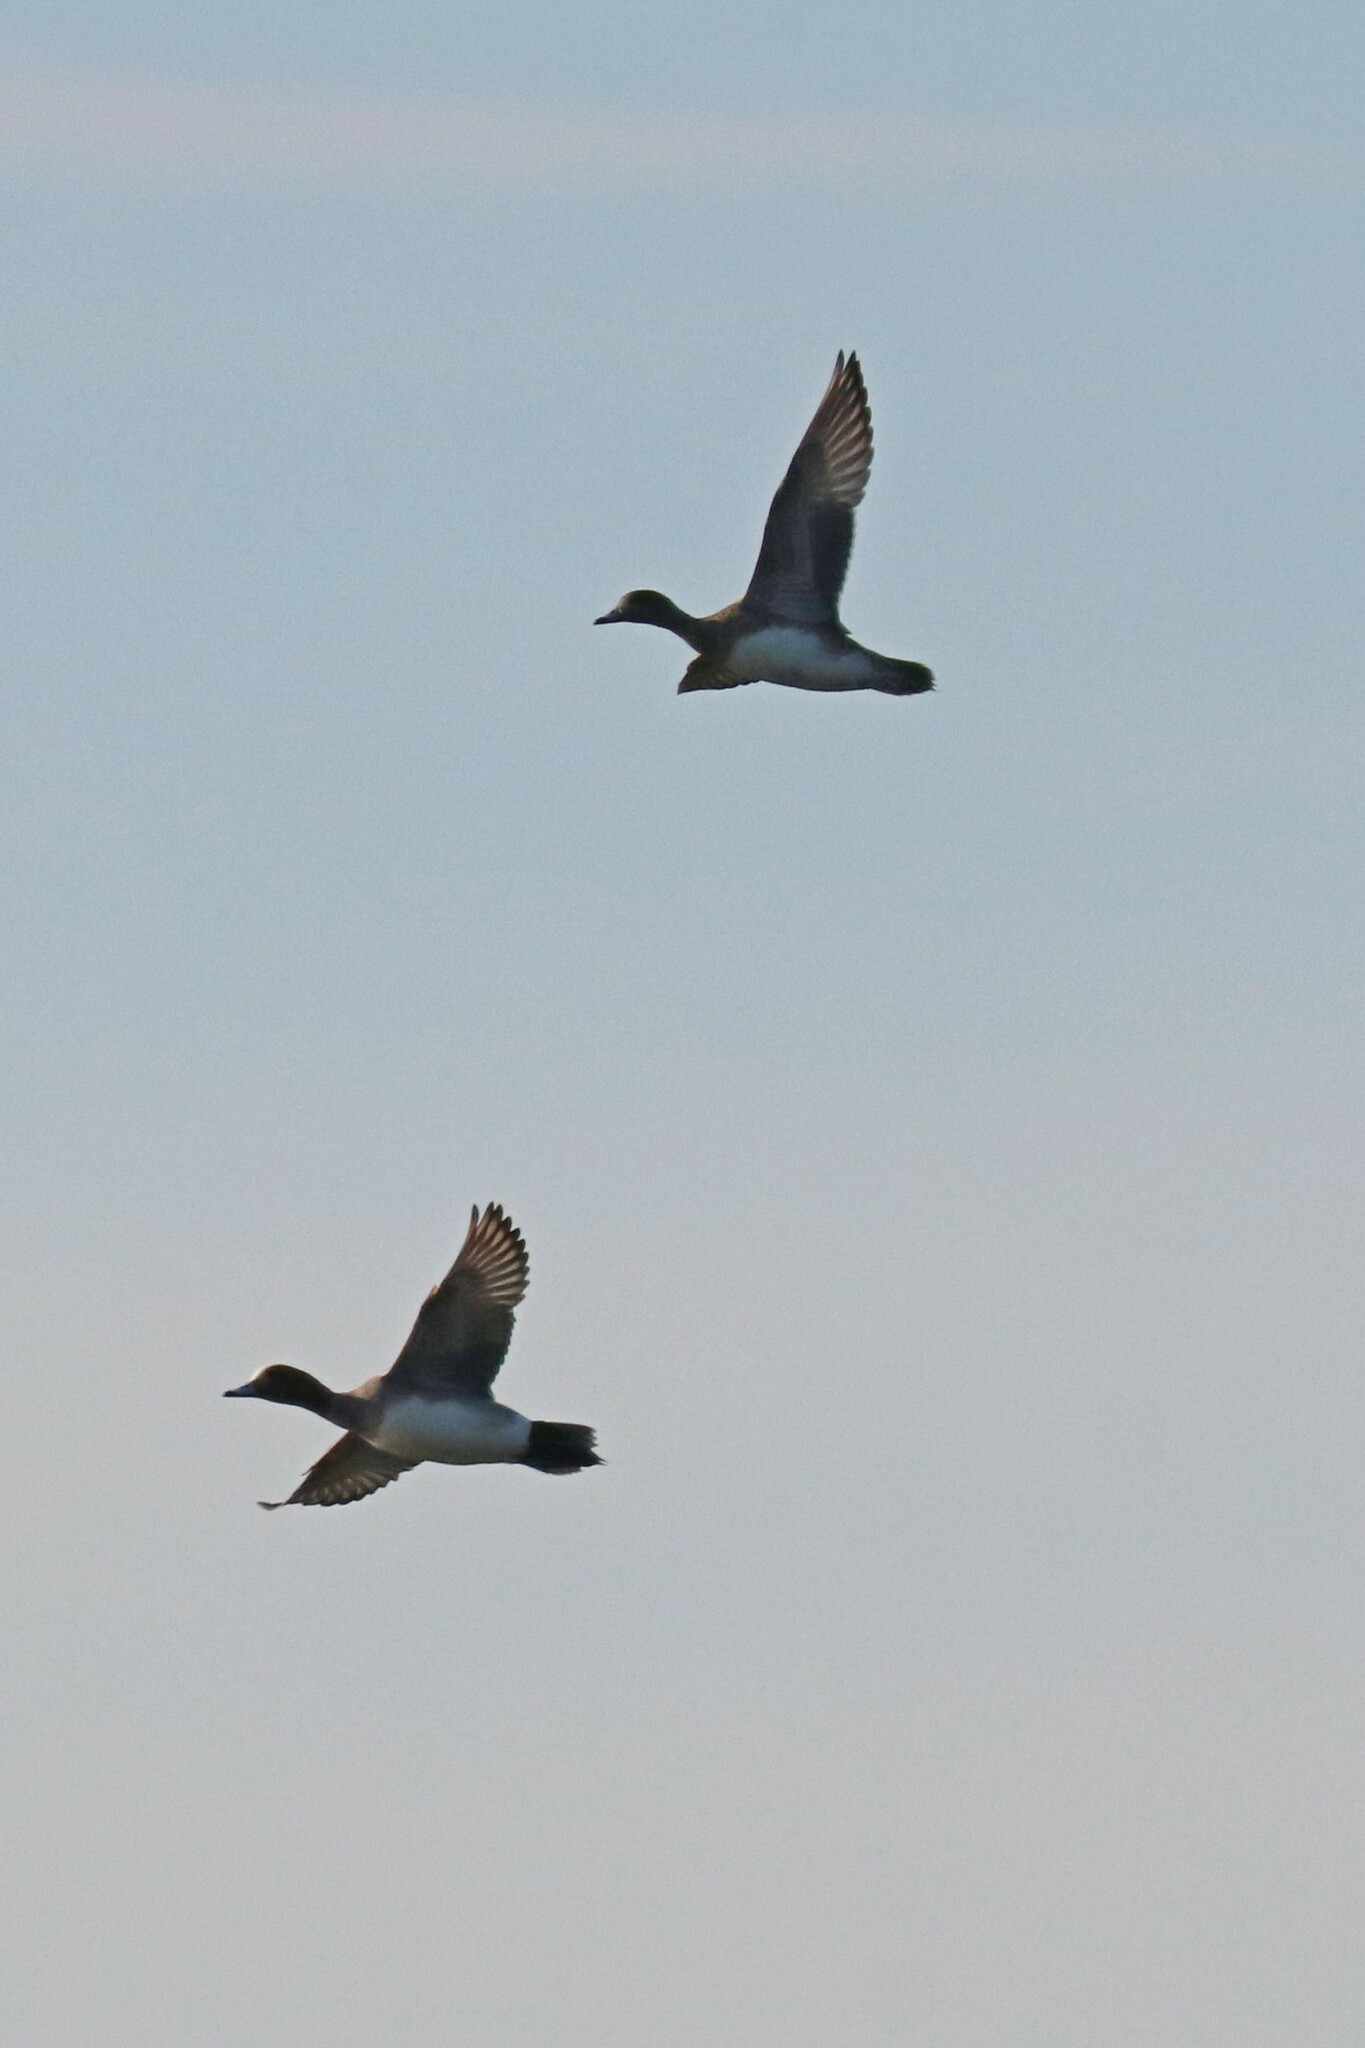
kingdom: Animalia
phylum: Chordata
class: Aves
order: Anseriformes
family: Anatidae
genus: Mareca
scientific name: Mareca penelope
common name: Eurasian wigeon
